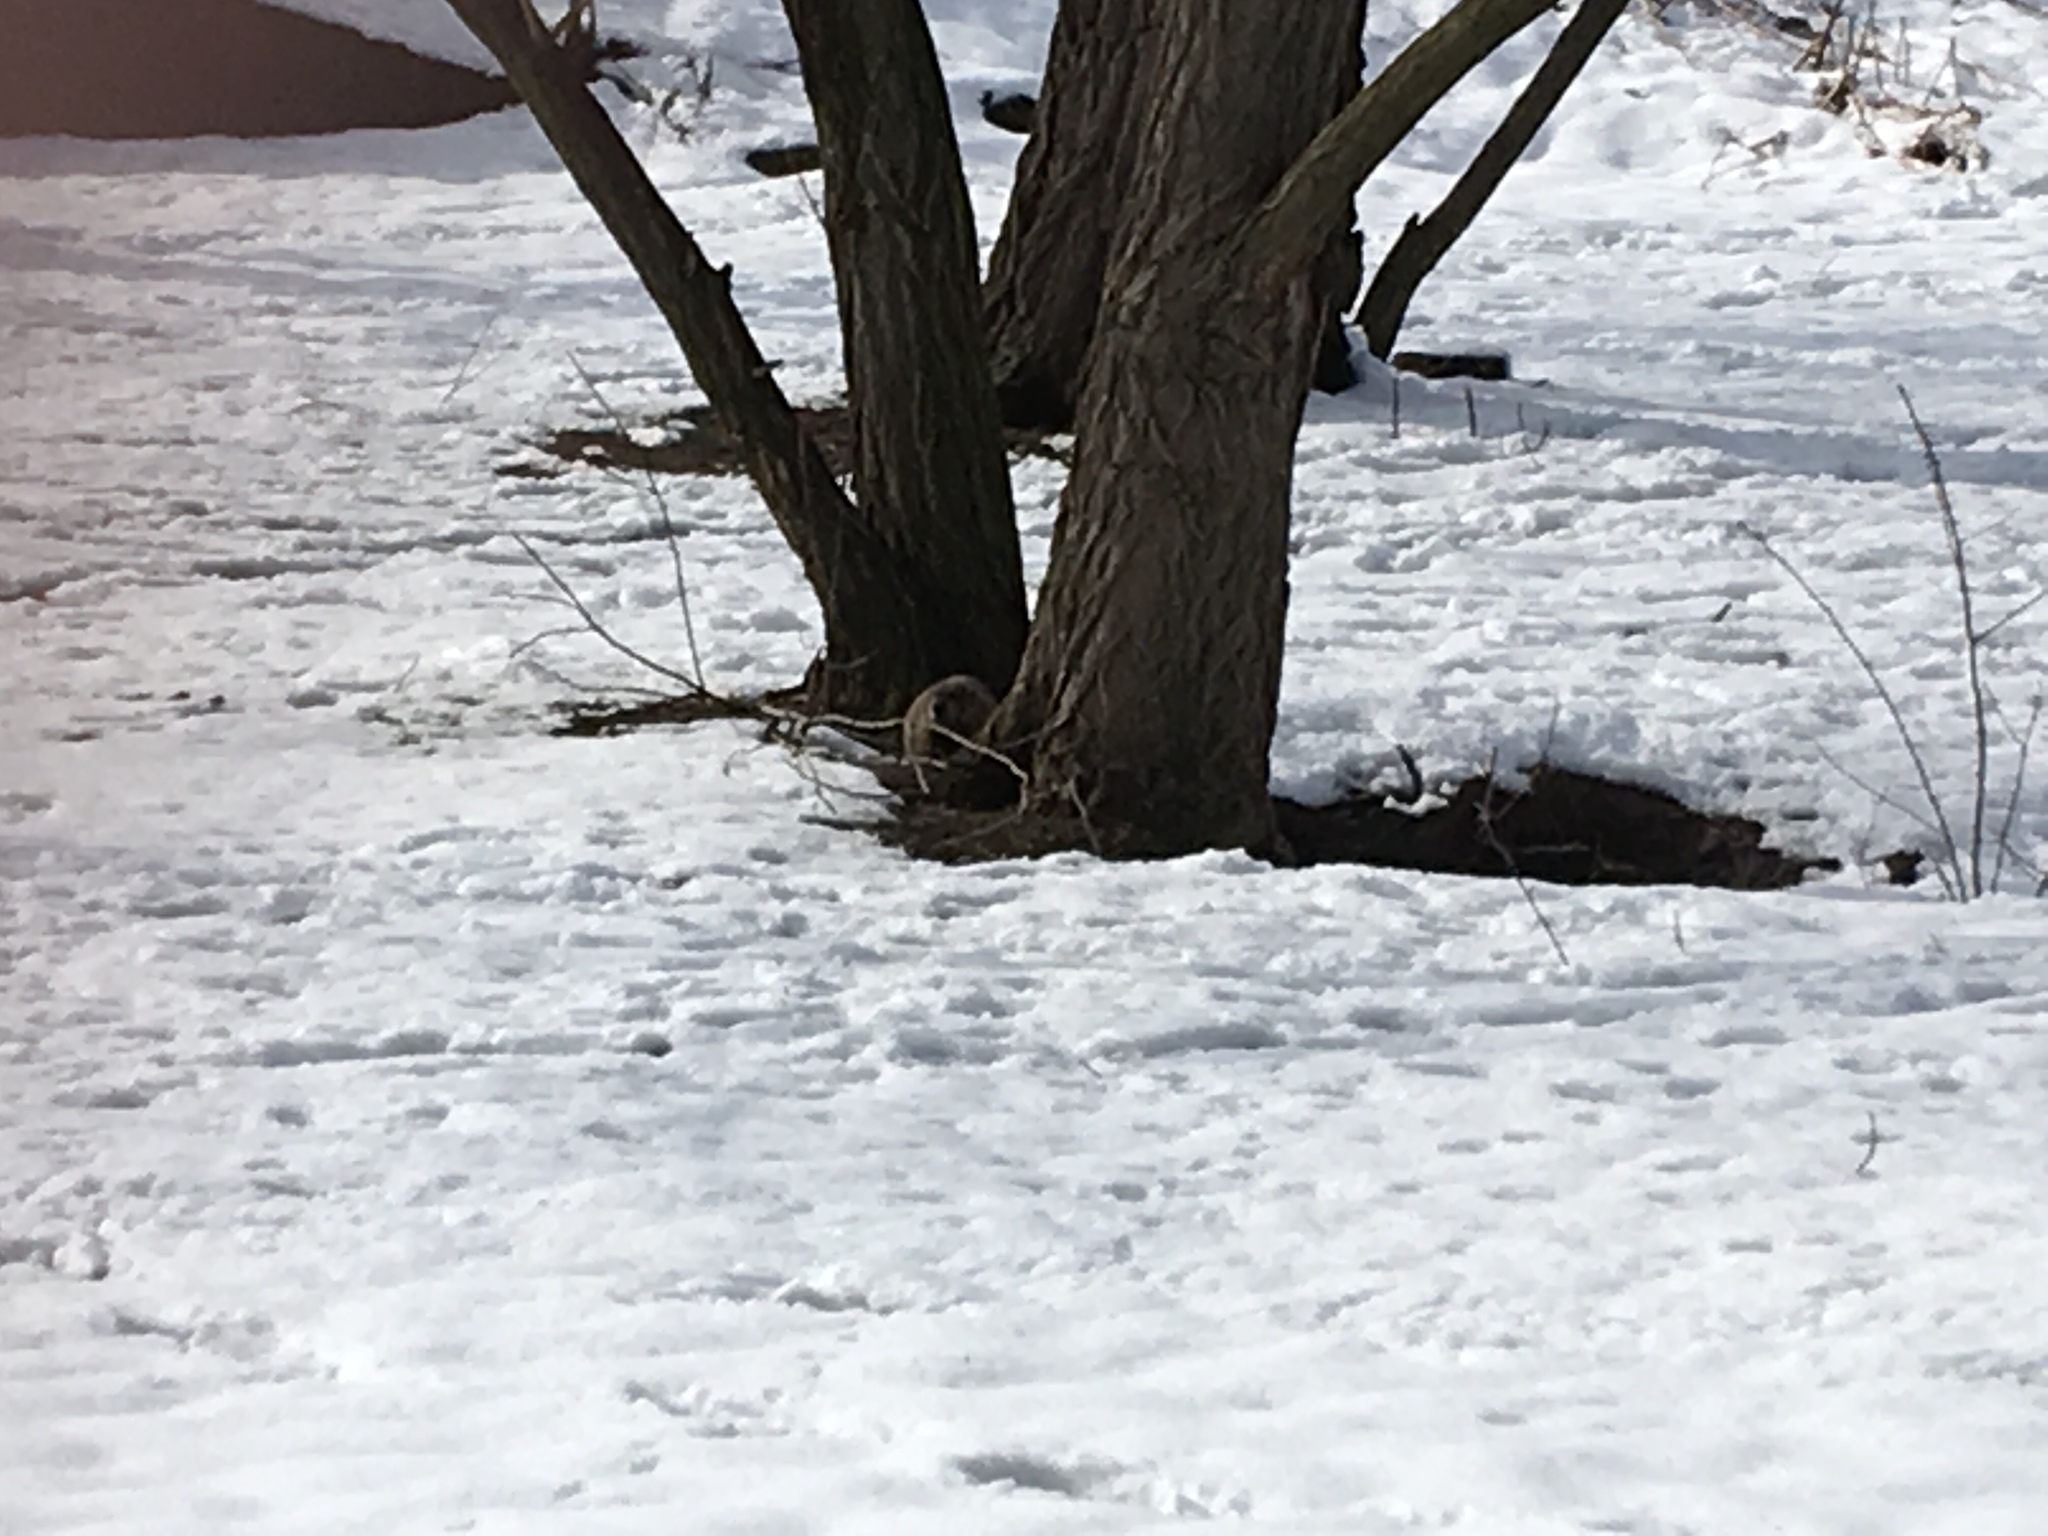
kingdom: Animalia
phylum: Chordata
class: Mammalia
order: Rodentia
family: Sciuridae
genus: Marmota
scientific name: Marmota monax
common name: Groundhog
